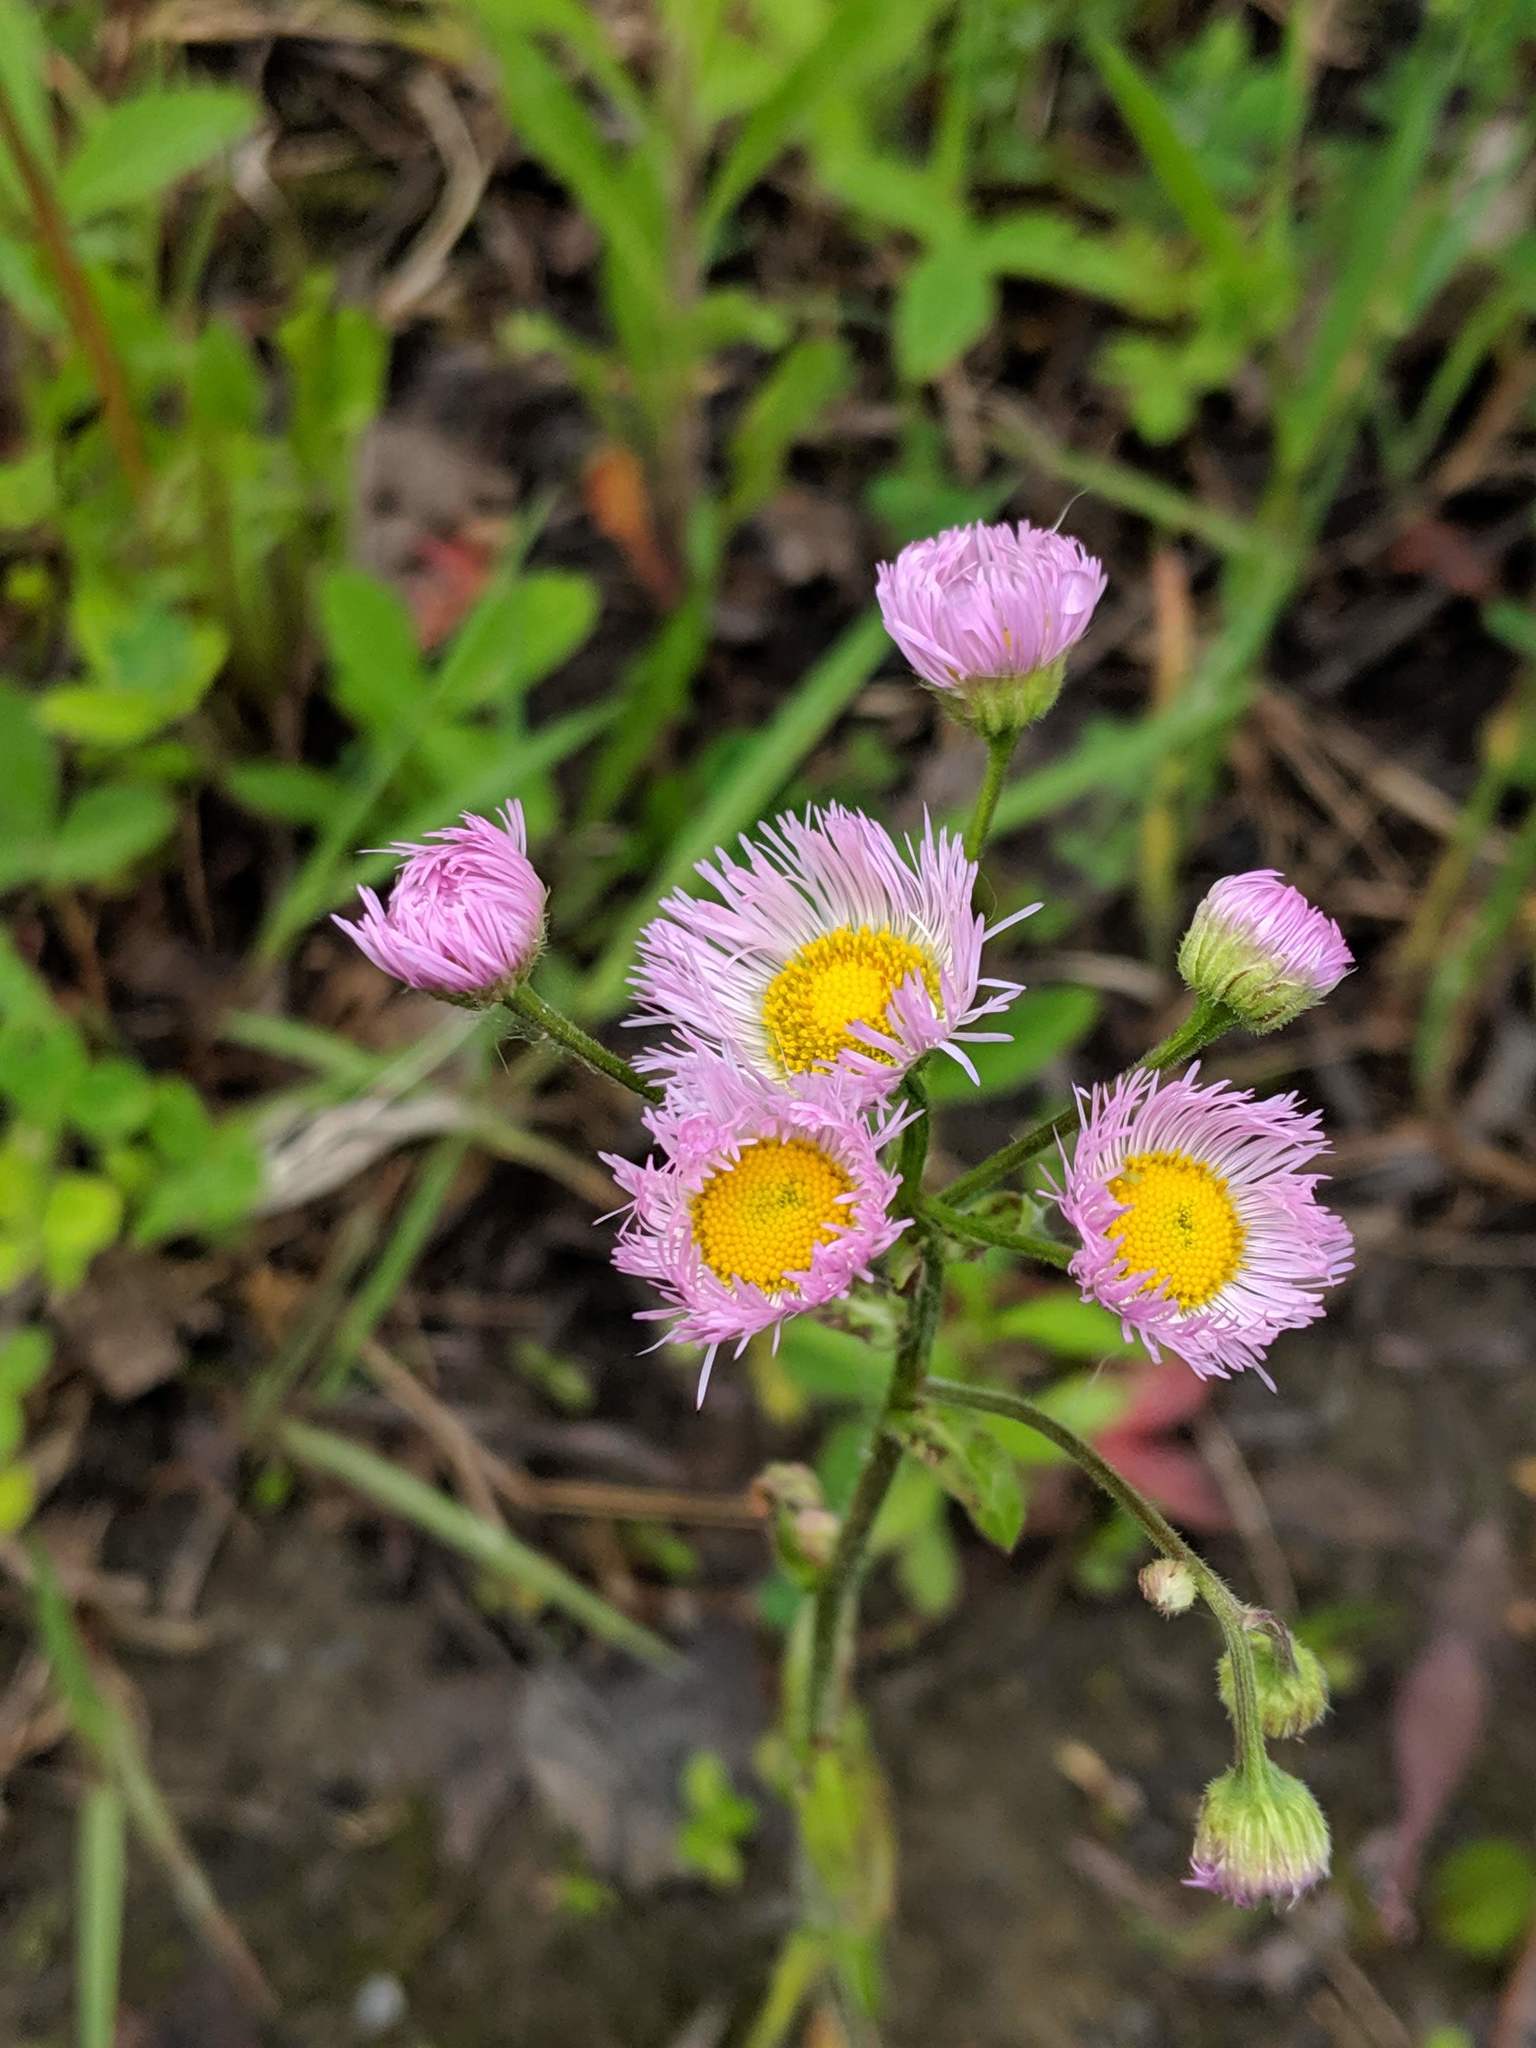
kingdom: Plantae
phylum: Tracheophyta
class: Magnoliopsida
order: Asterales
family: Asteraceae
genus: Erigeron
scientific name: Erigeron philadelphicus
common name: Robin's-plantain
